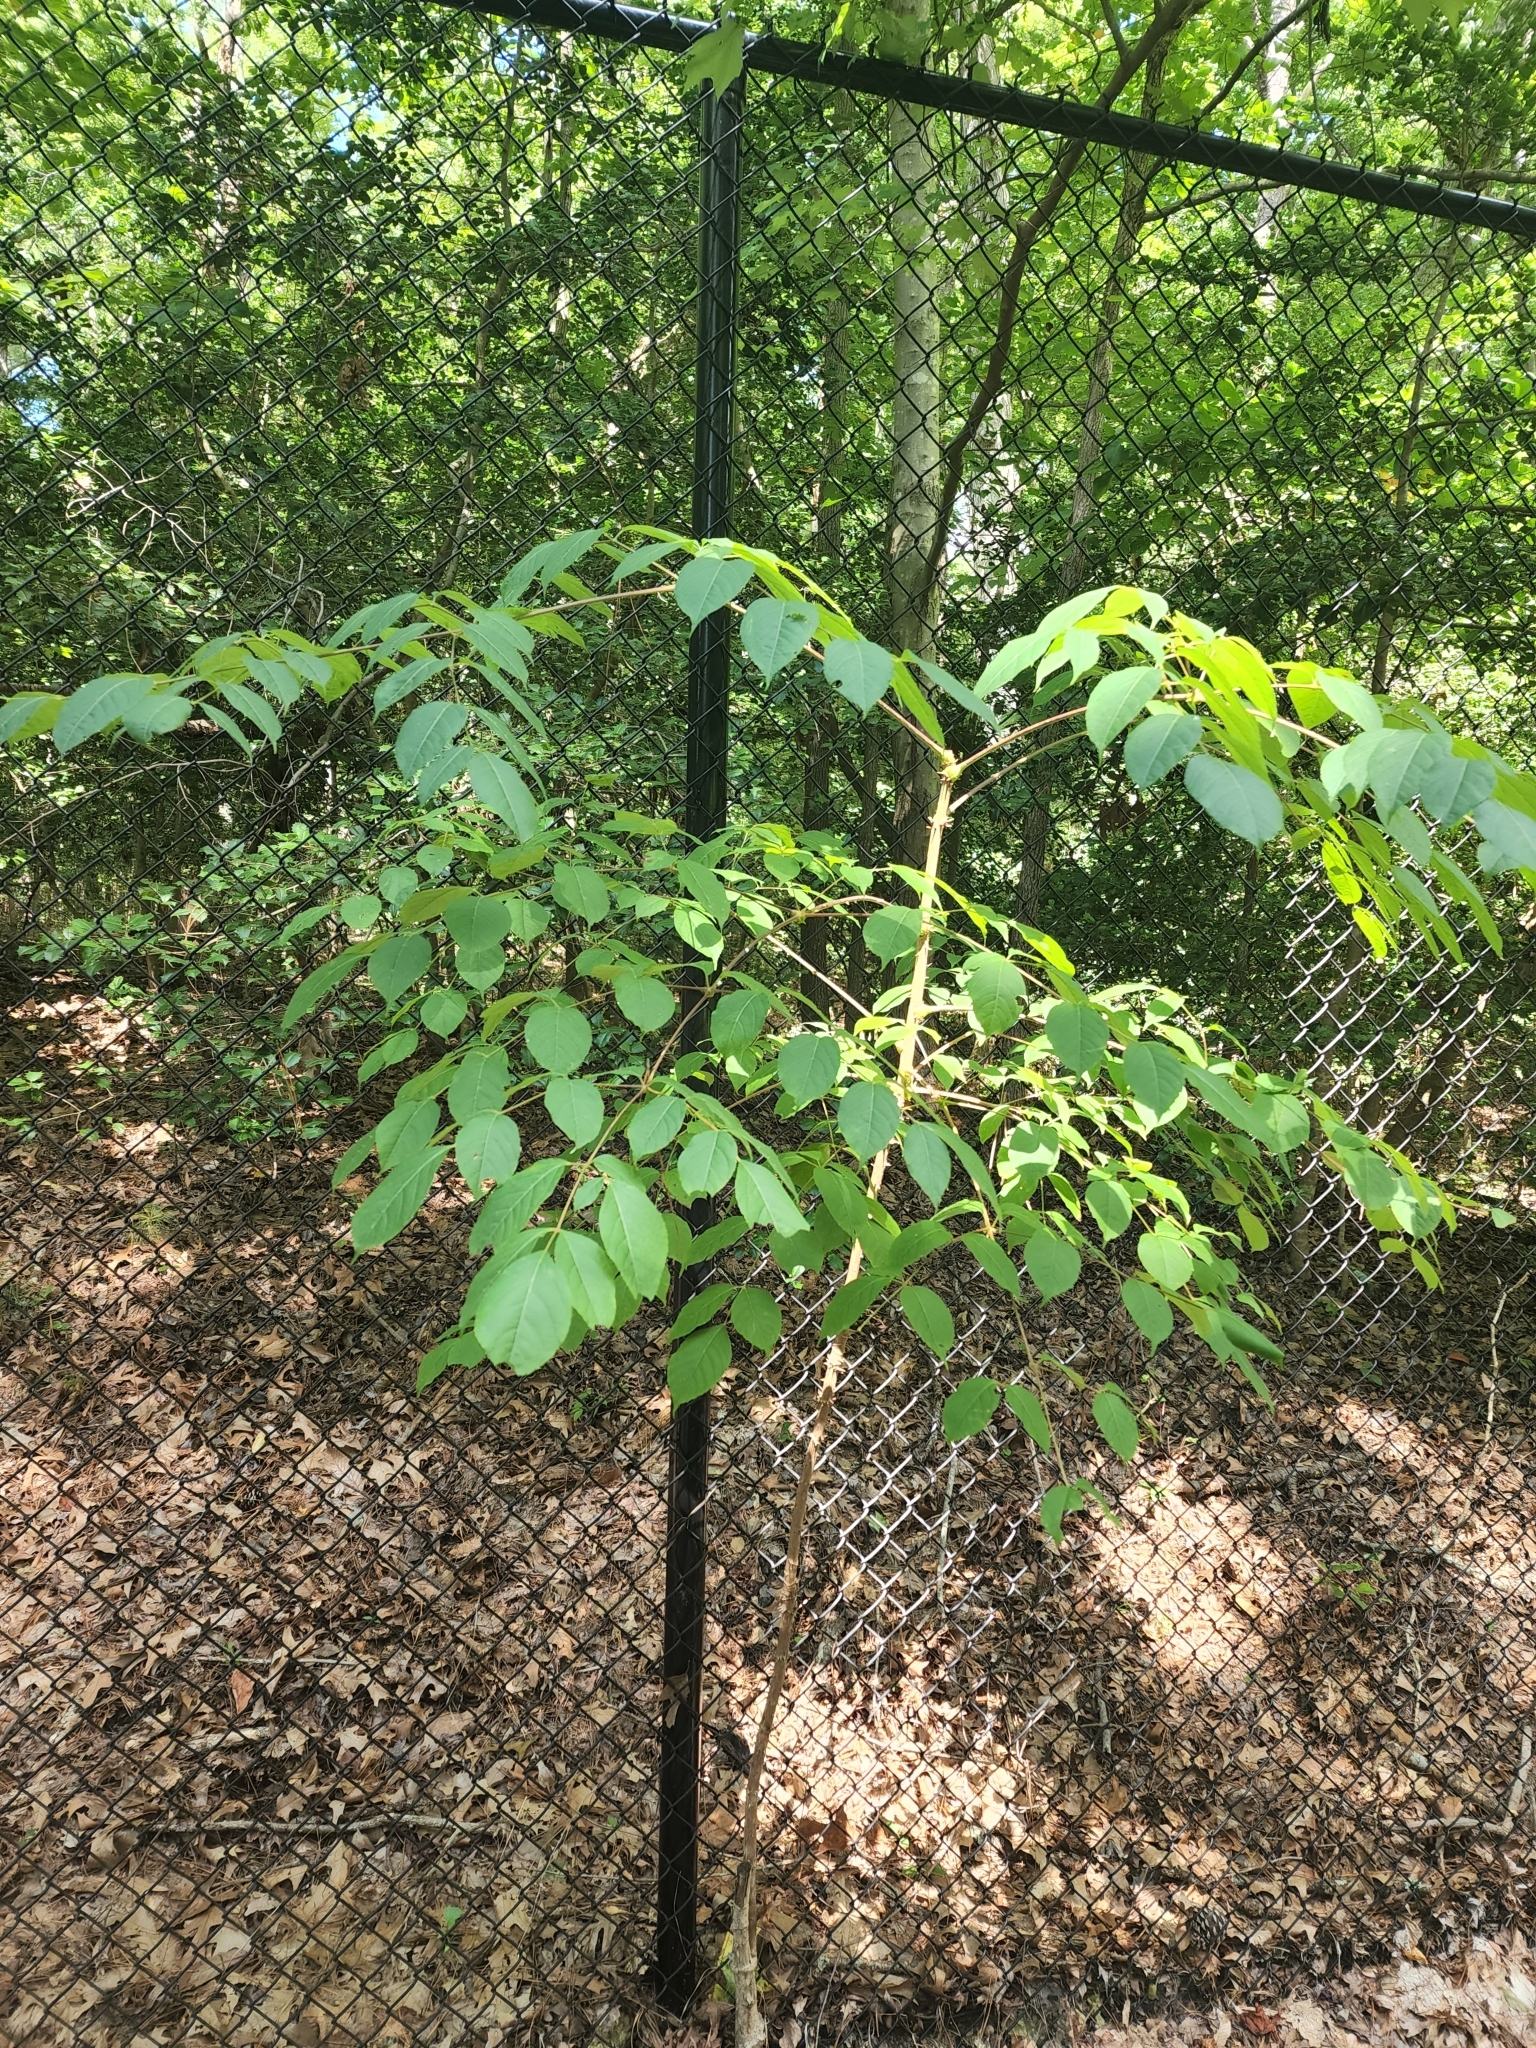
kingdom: Plantae
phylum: Tracheophyta
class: Magnoliopsida
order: Apiales
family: Araliaceae
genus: Aralia
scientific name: Aralia spinosa
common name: Hercules'-club
